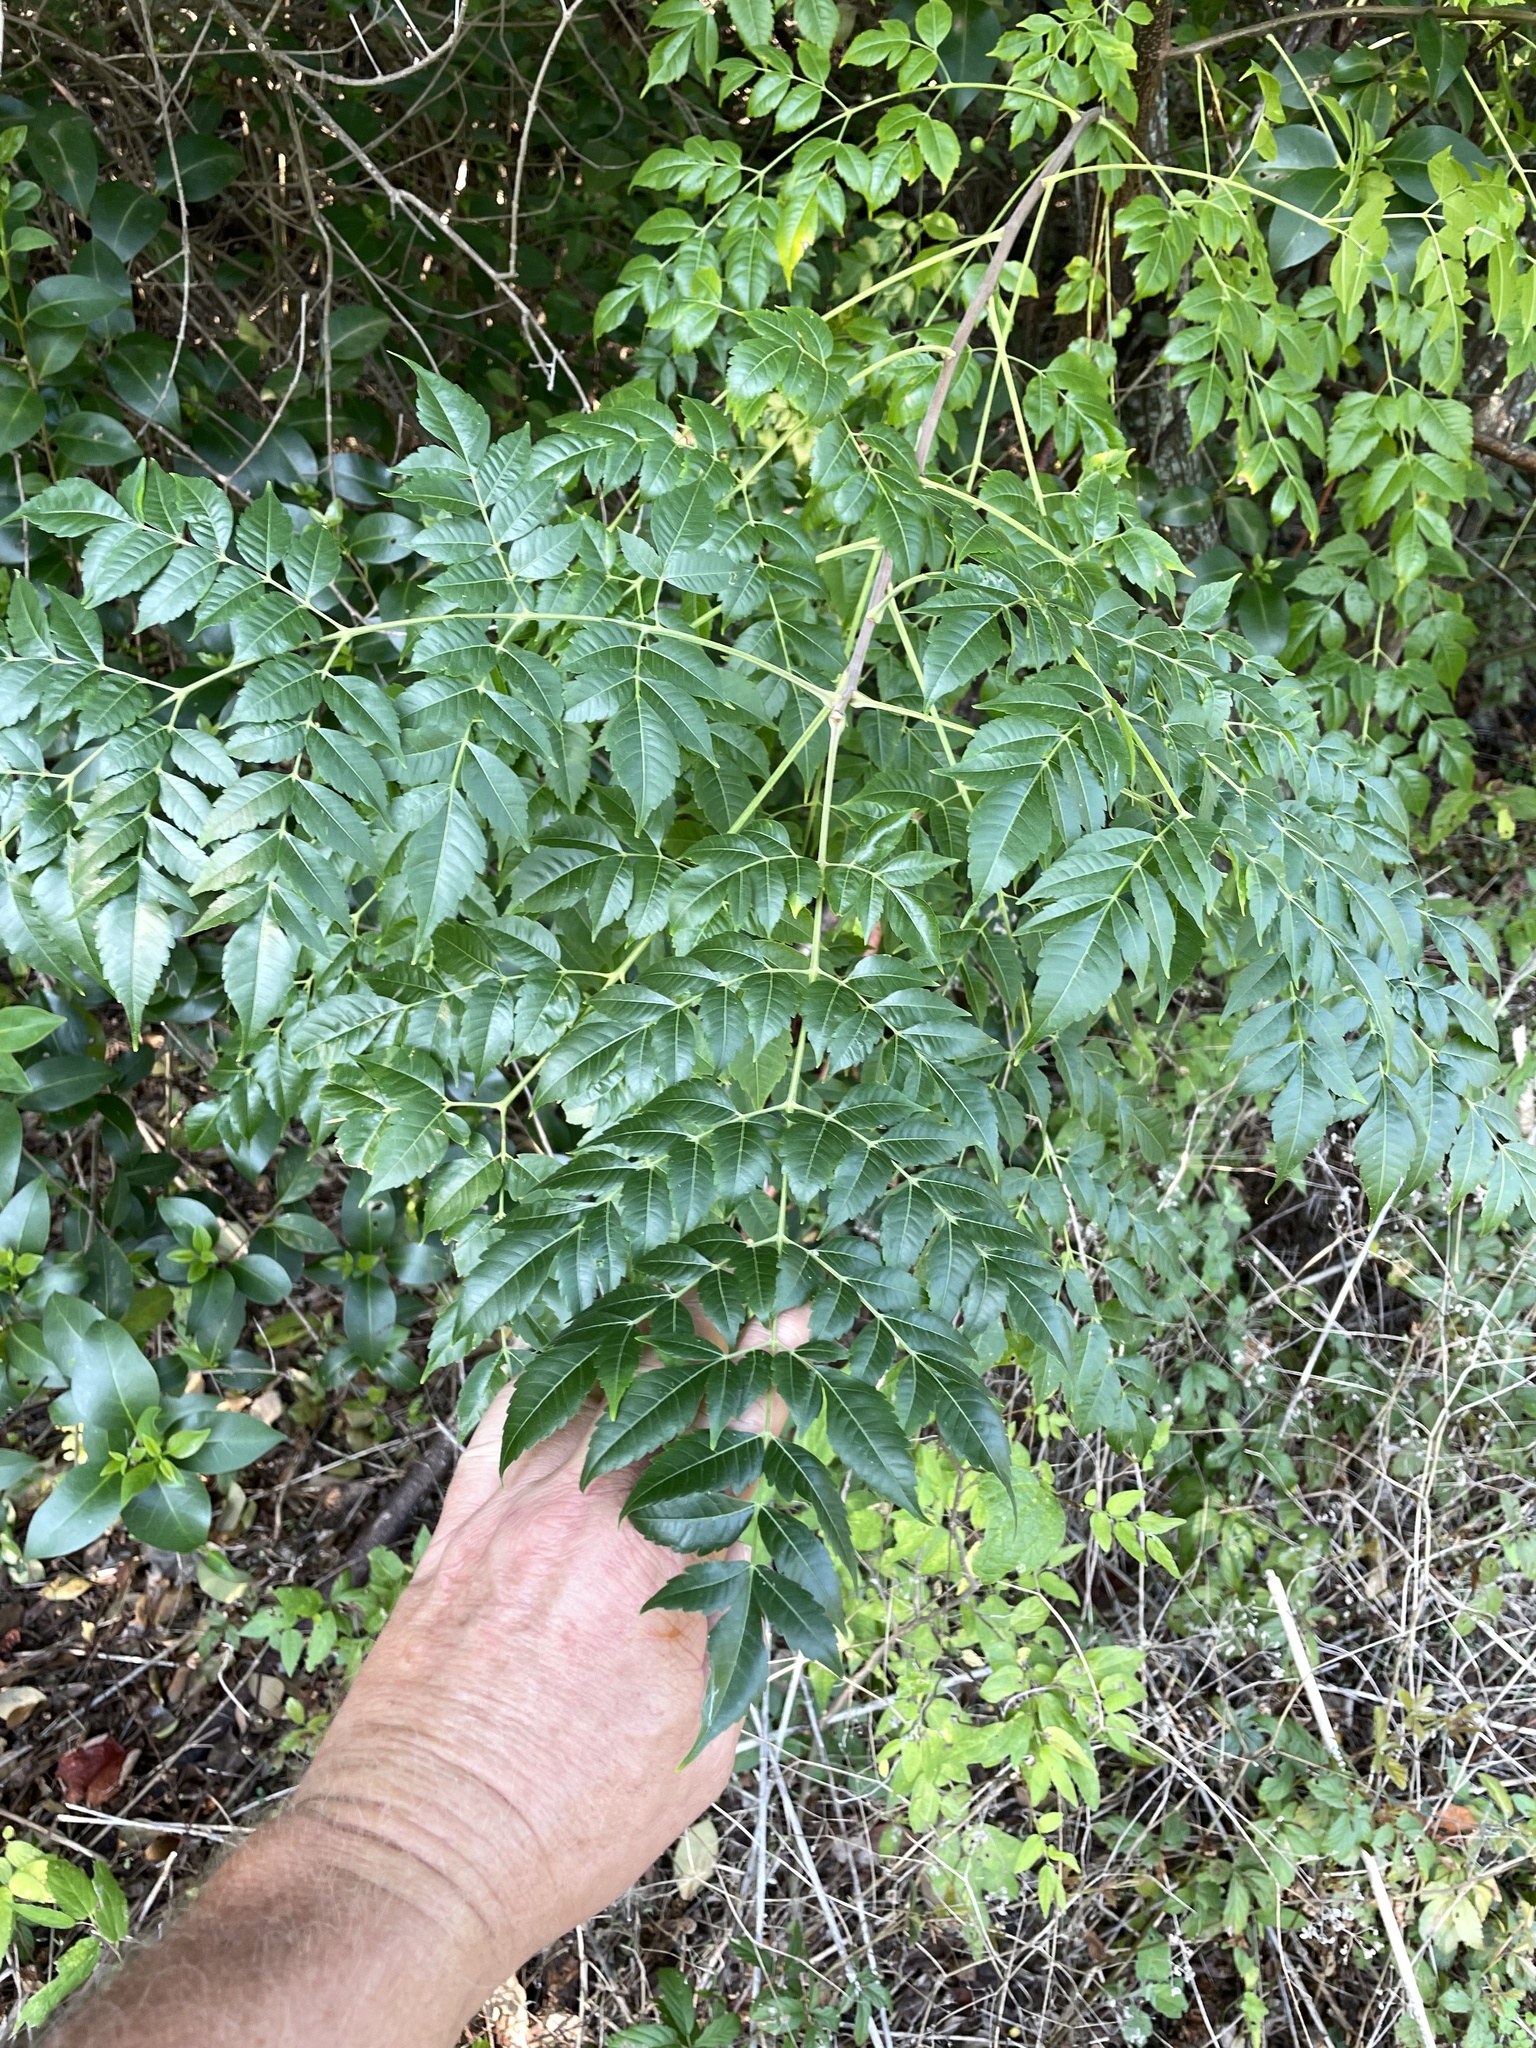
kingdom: Plantae
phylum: Tracheophyta
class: Magnoliopsida
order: Sapindales
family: Meliaceae
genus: Melia
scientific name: Melia azedarach
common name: Chinaberrytree
